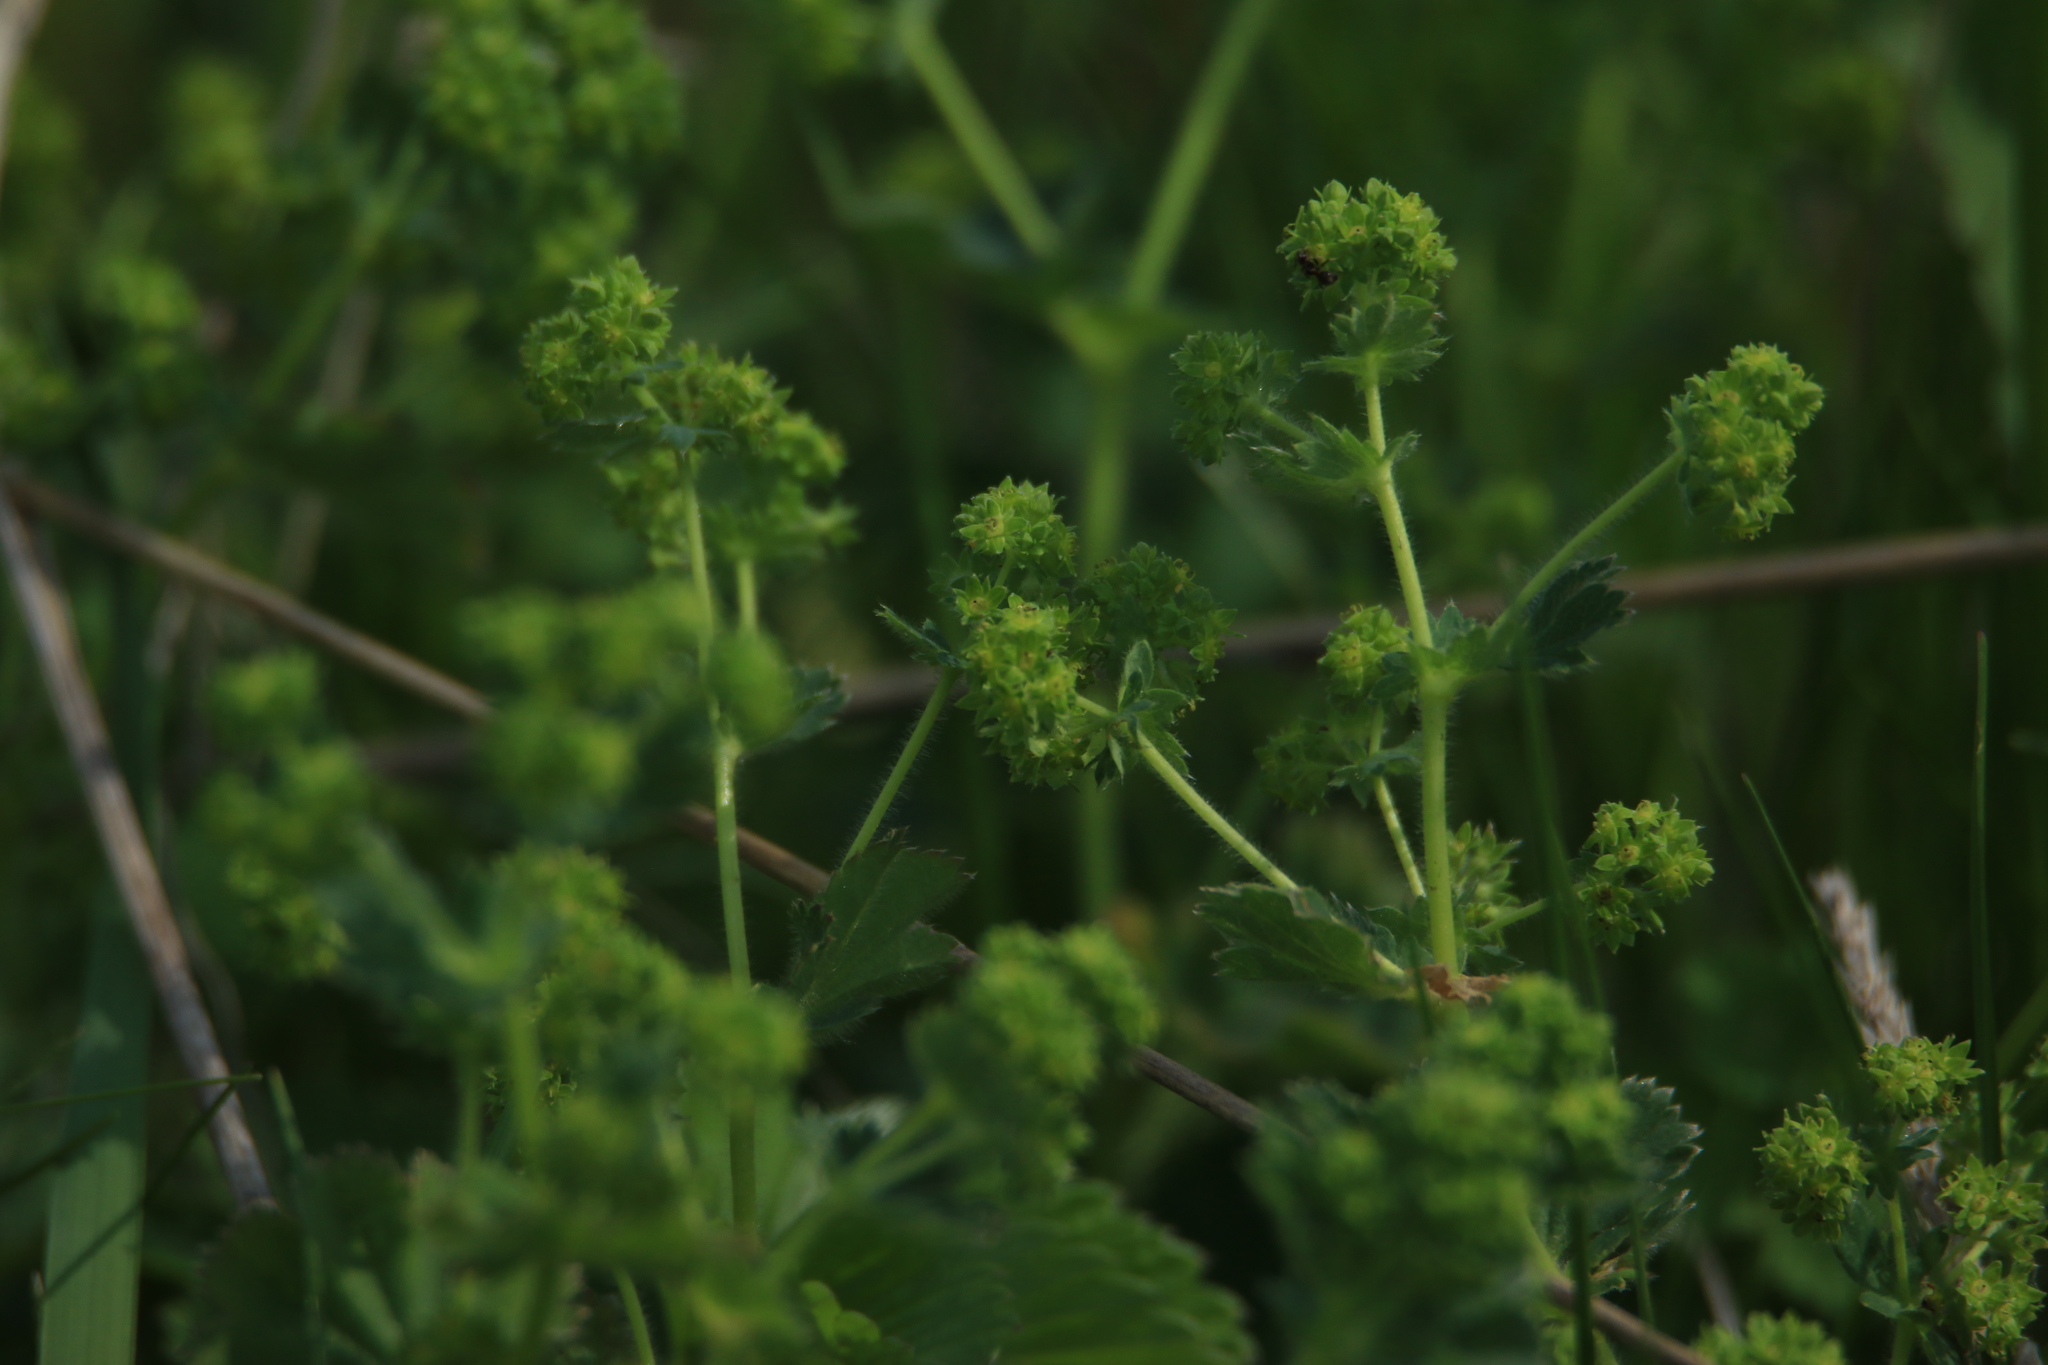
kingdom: Plantae
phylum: Tracheophyta
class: Magnoliopsida
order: Rosales
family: Rosaceae
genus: Alchemilla
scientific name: Alchemilla
